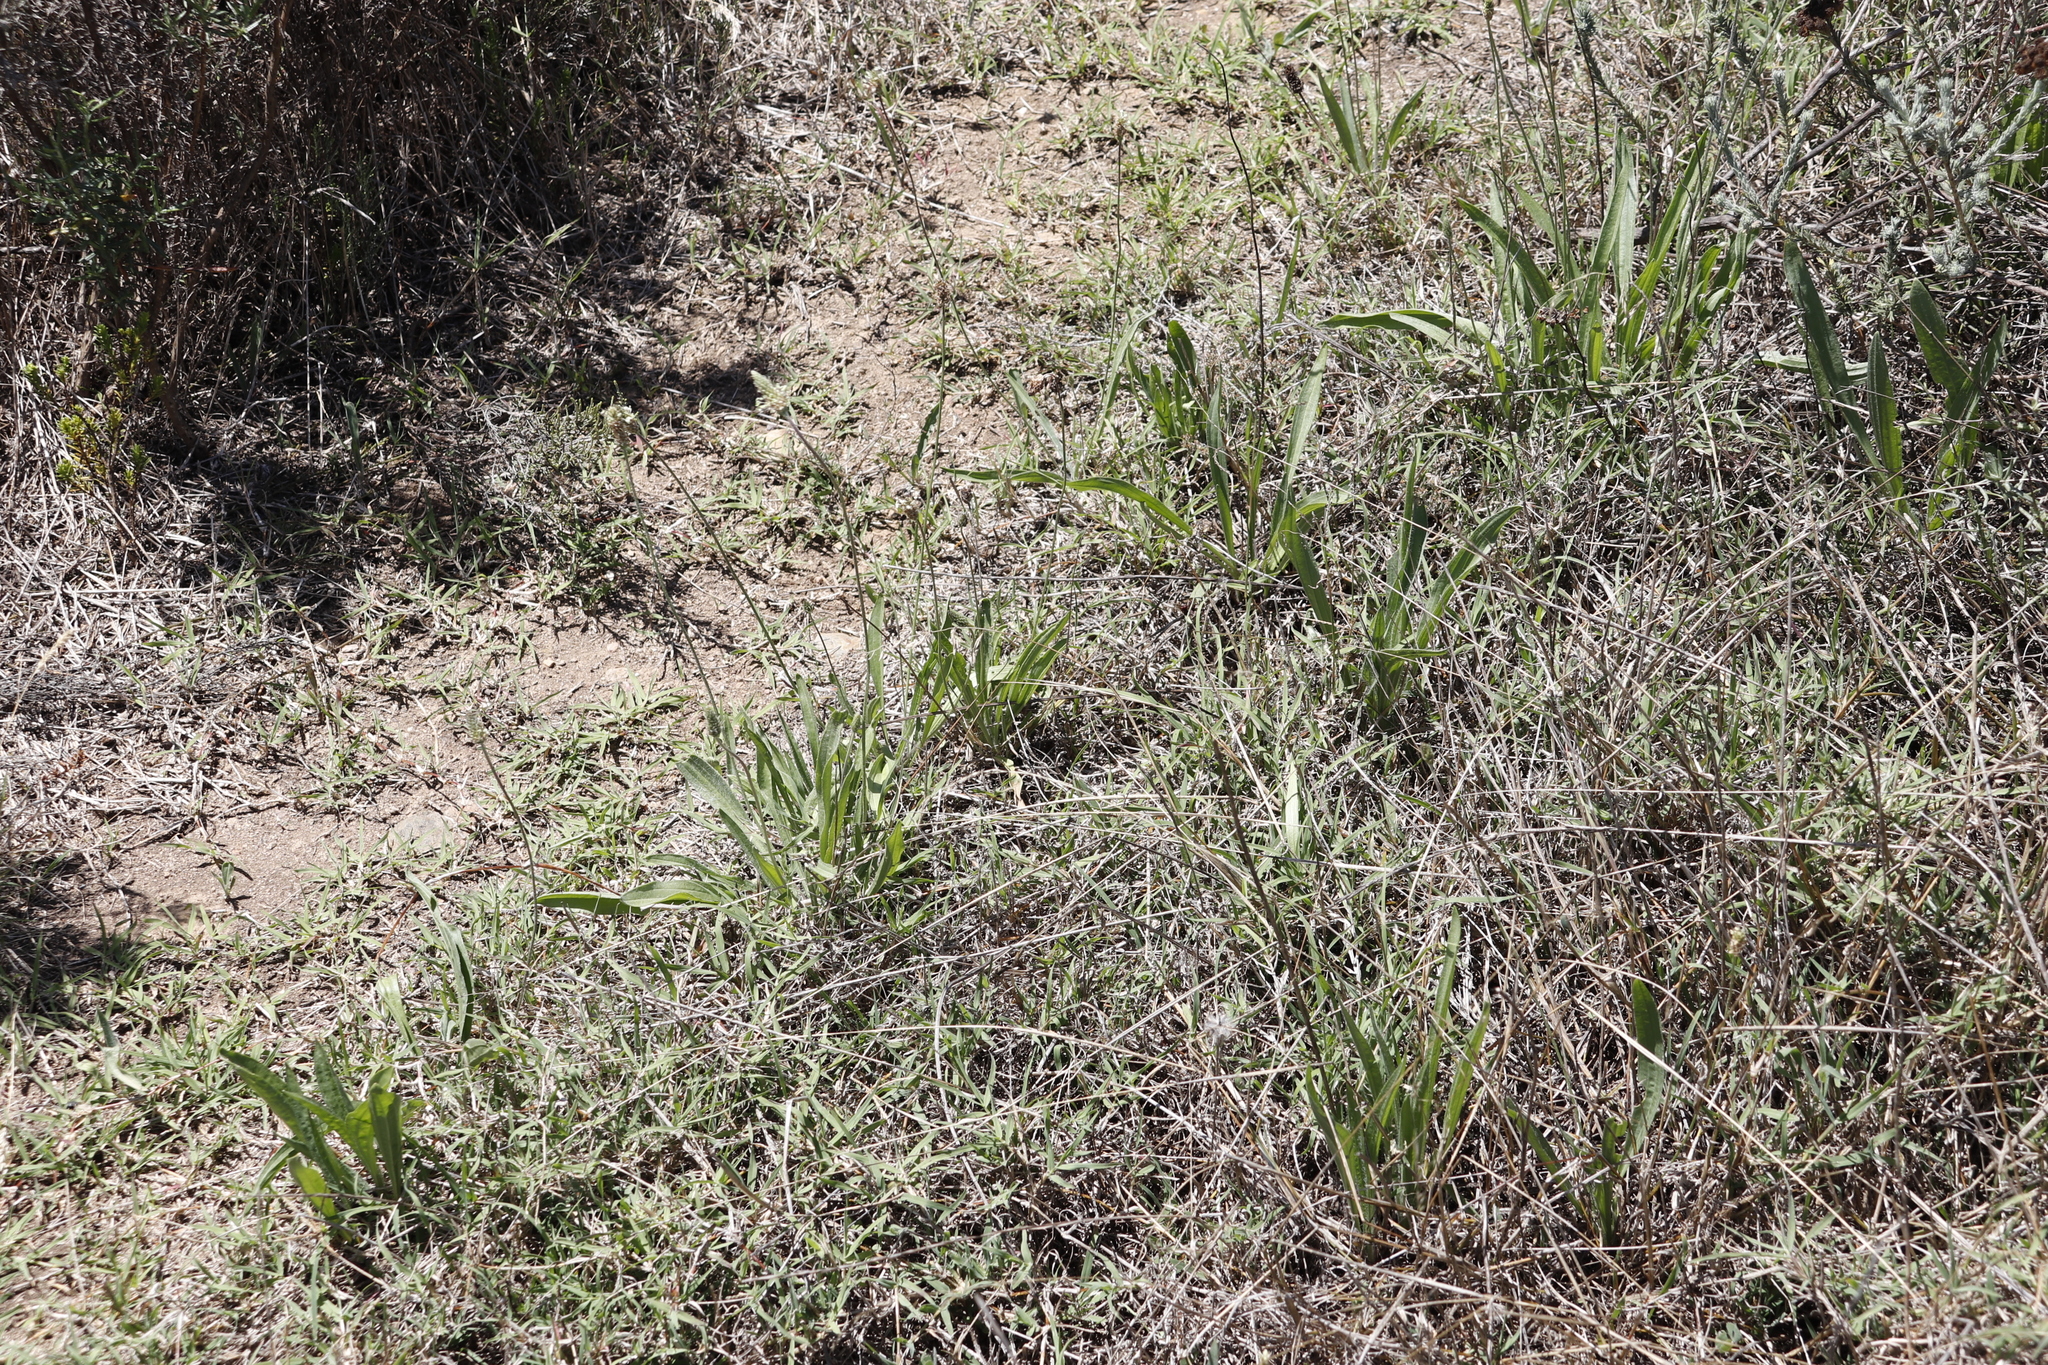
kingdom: Plantae
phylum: Tracheophyta
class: Magnoliopsida
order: Lamiales
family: Plantaginaceae
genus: Plantago
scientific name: Plantago lanceolata
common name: Ribwort plantain
